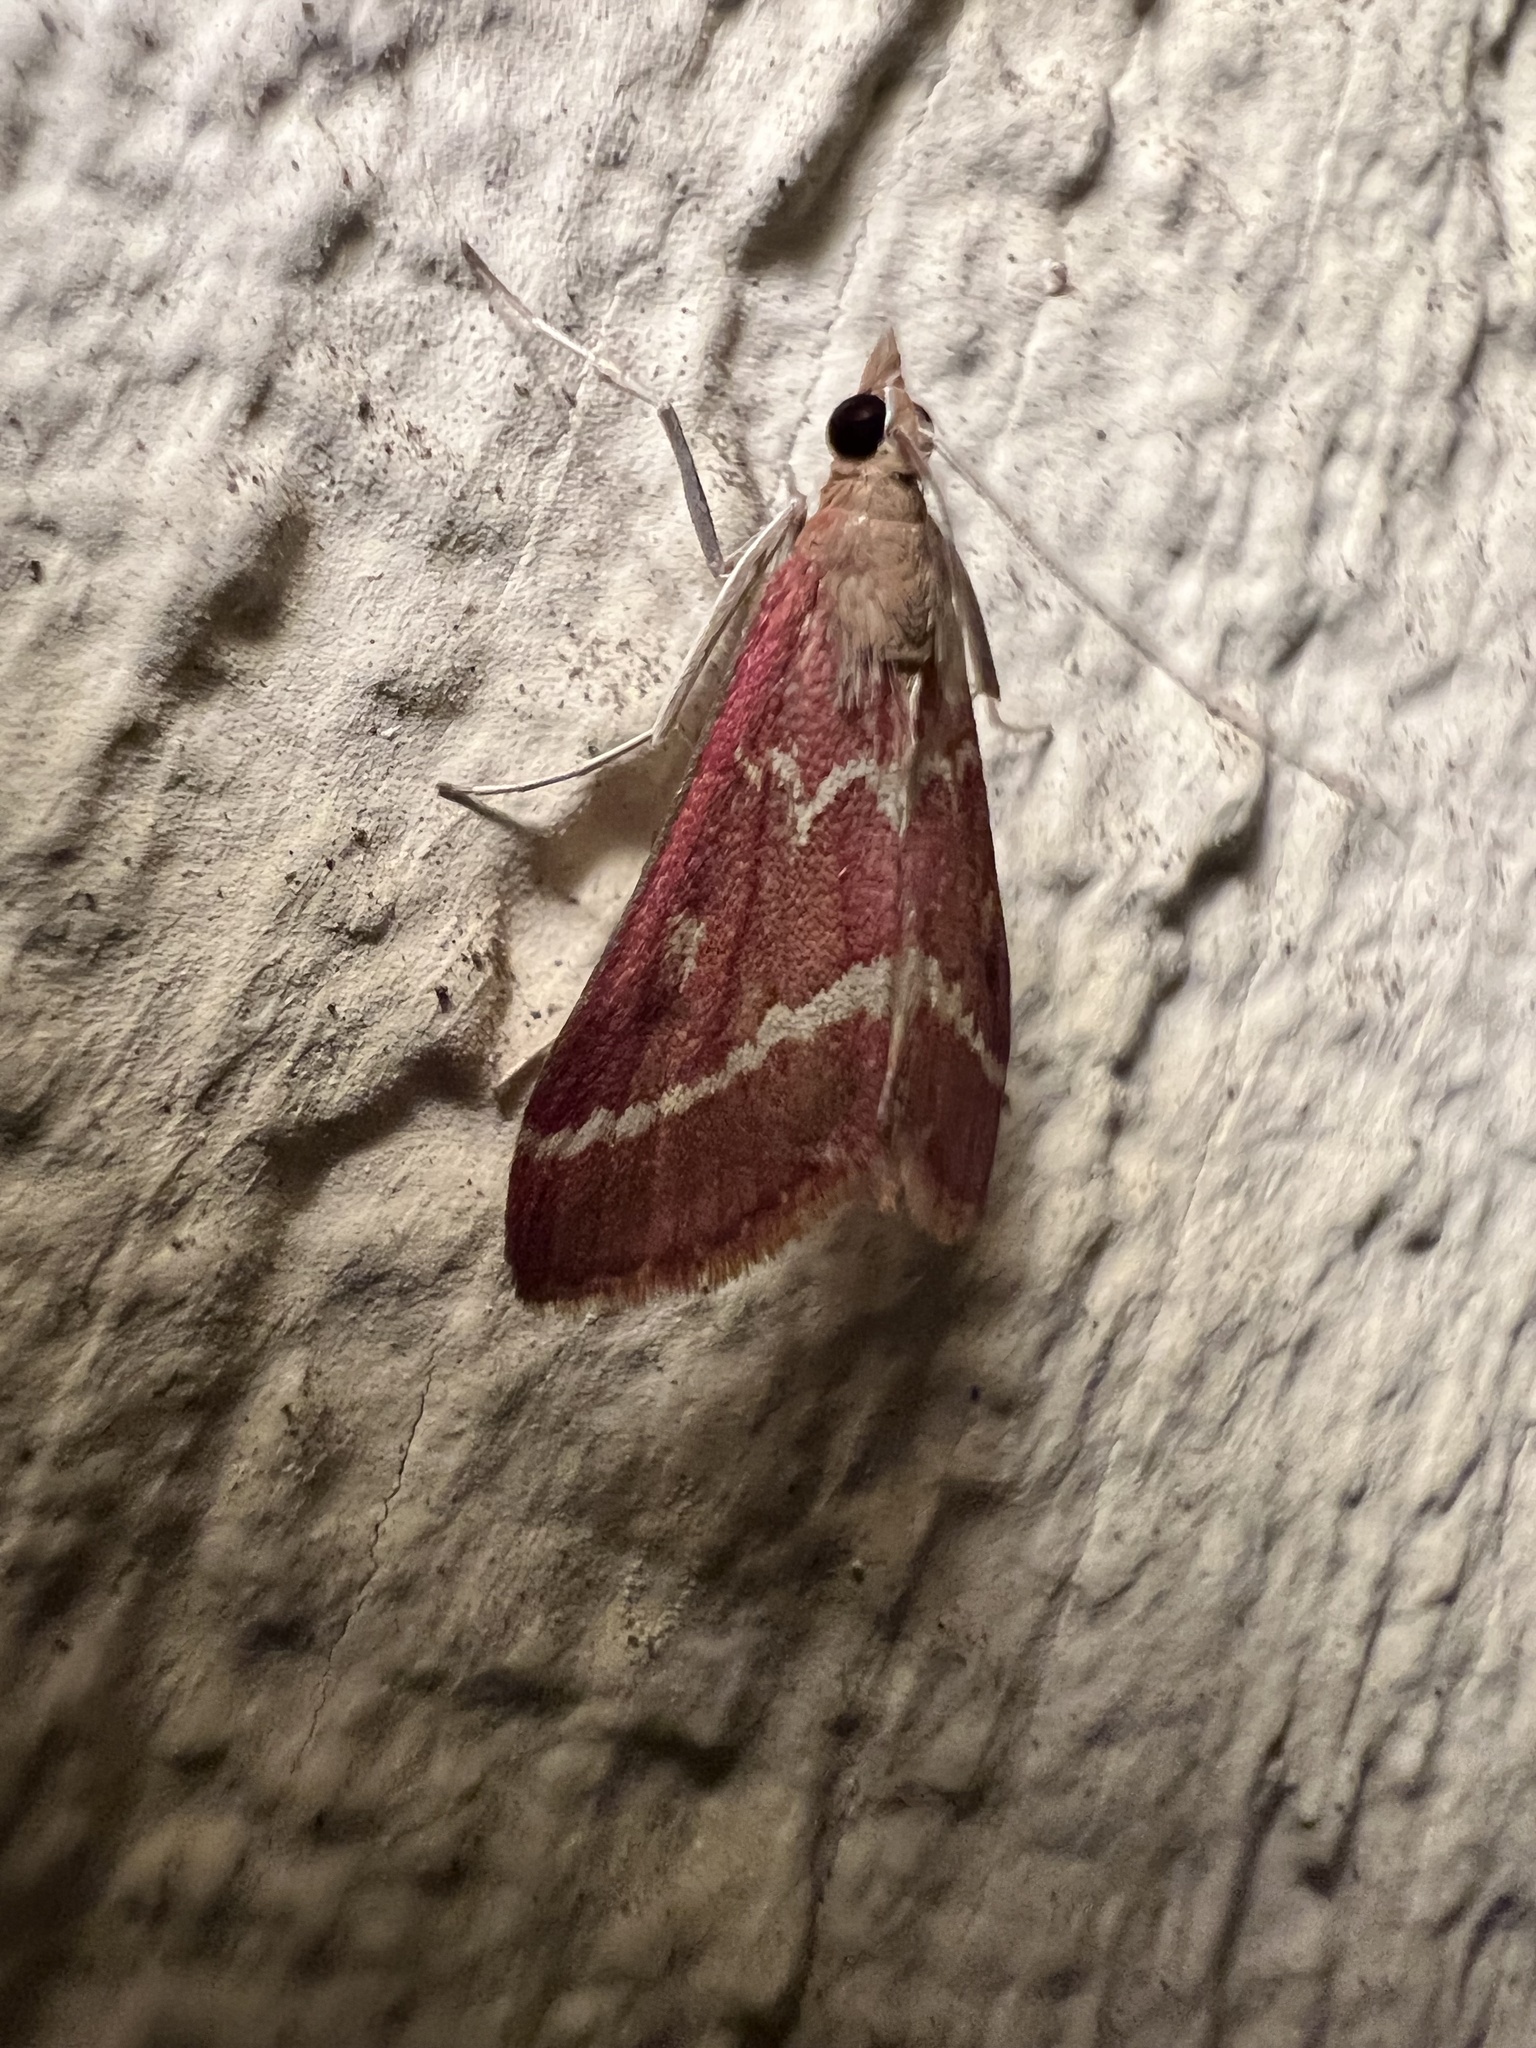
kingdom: Animalia
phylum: Arthropoda
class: Insecta
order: Lepidoptera
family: Crambidae
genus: Pyrausta
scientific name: Pyrausta volupialis
